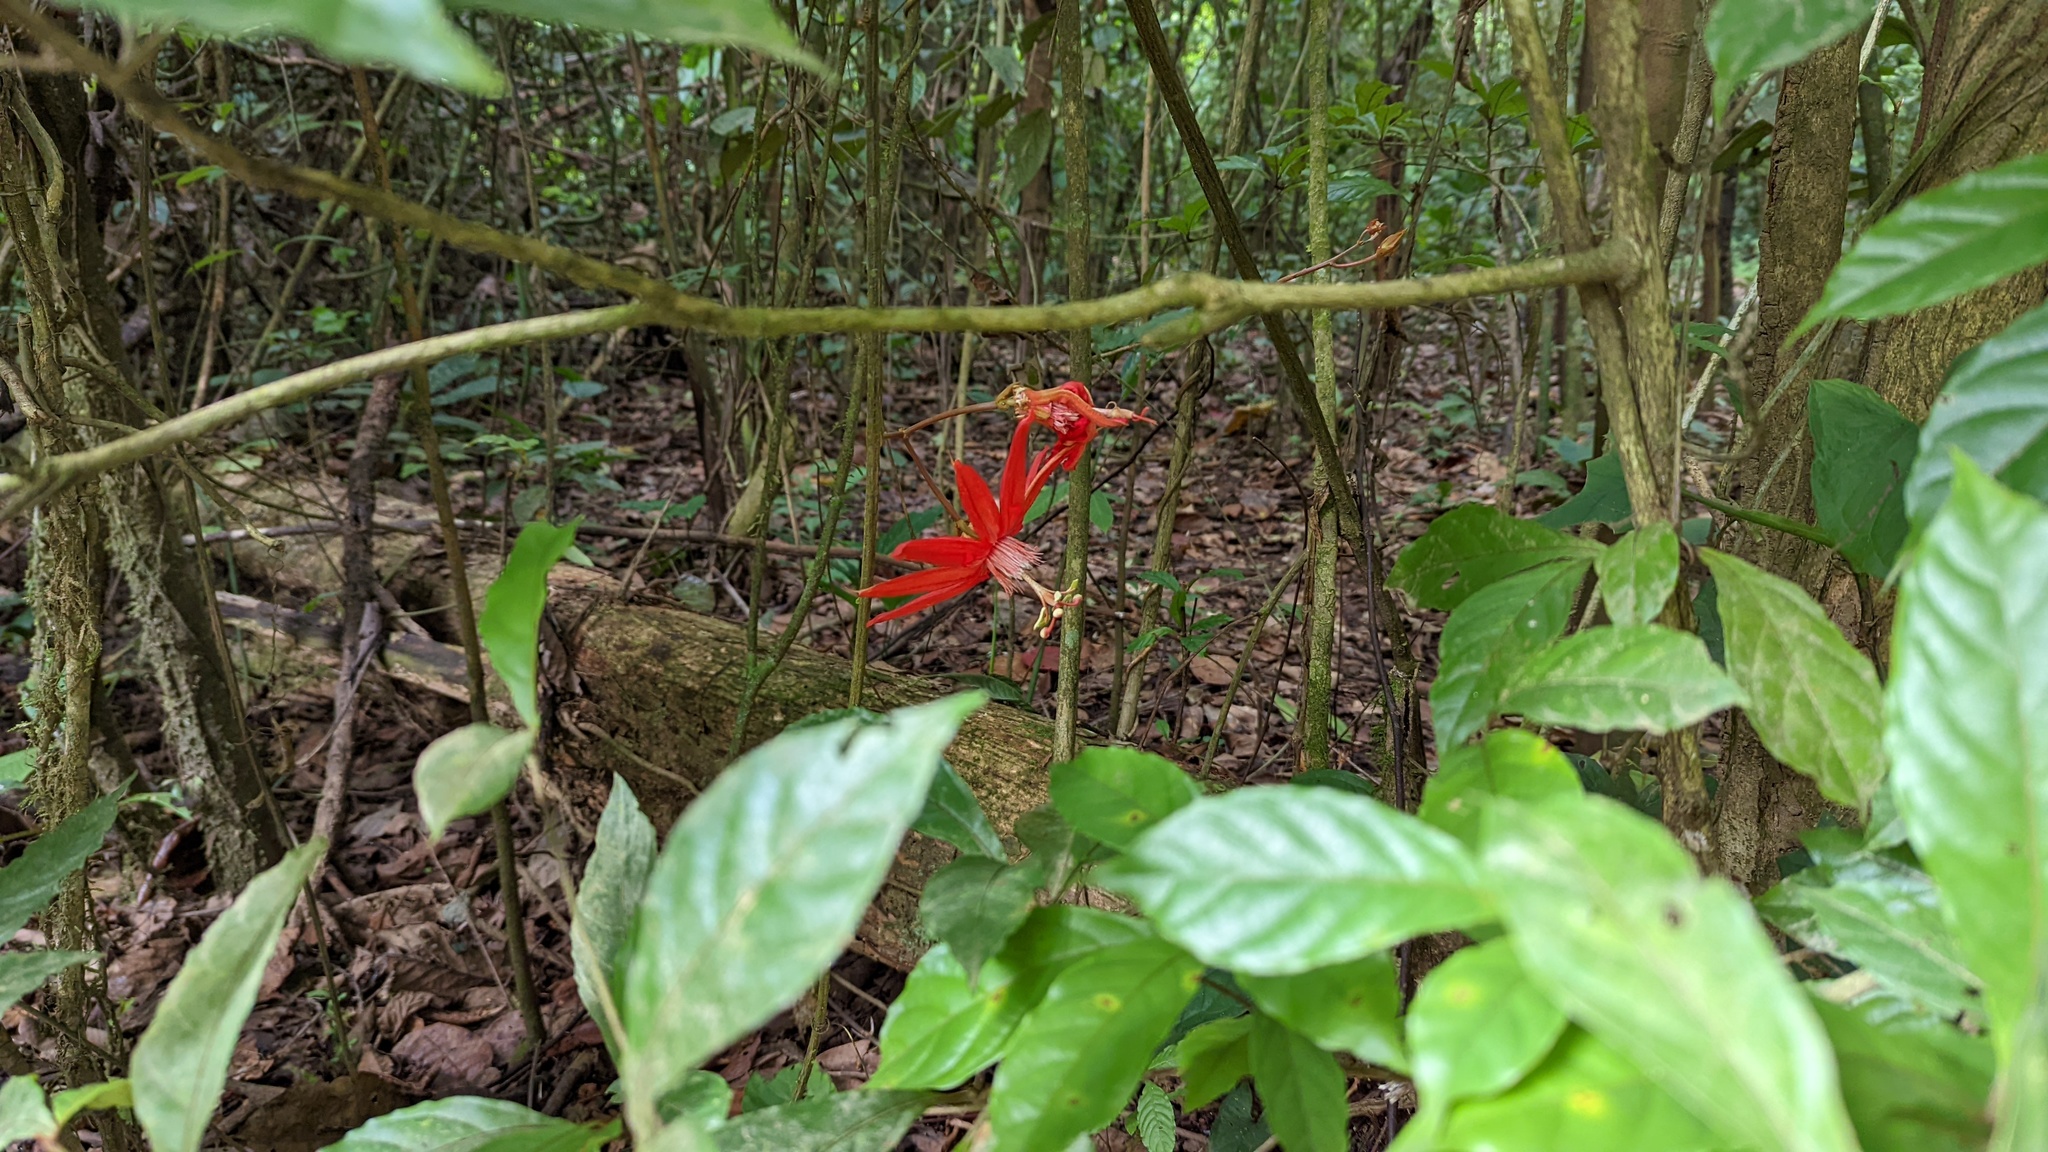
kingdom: Plantae
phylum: Tracheophyta
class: Magnoliopsida
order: Malpighiales
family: Passifloraceae
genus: Passiflora
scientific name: Passiflora vitifolia
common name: Perfumed passionflower
